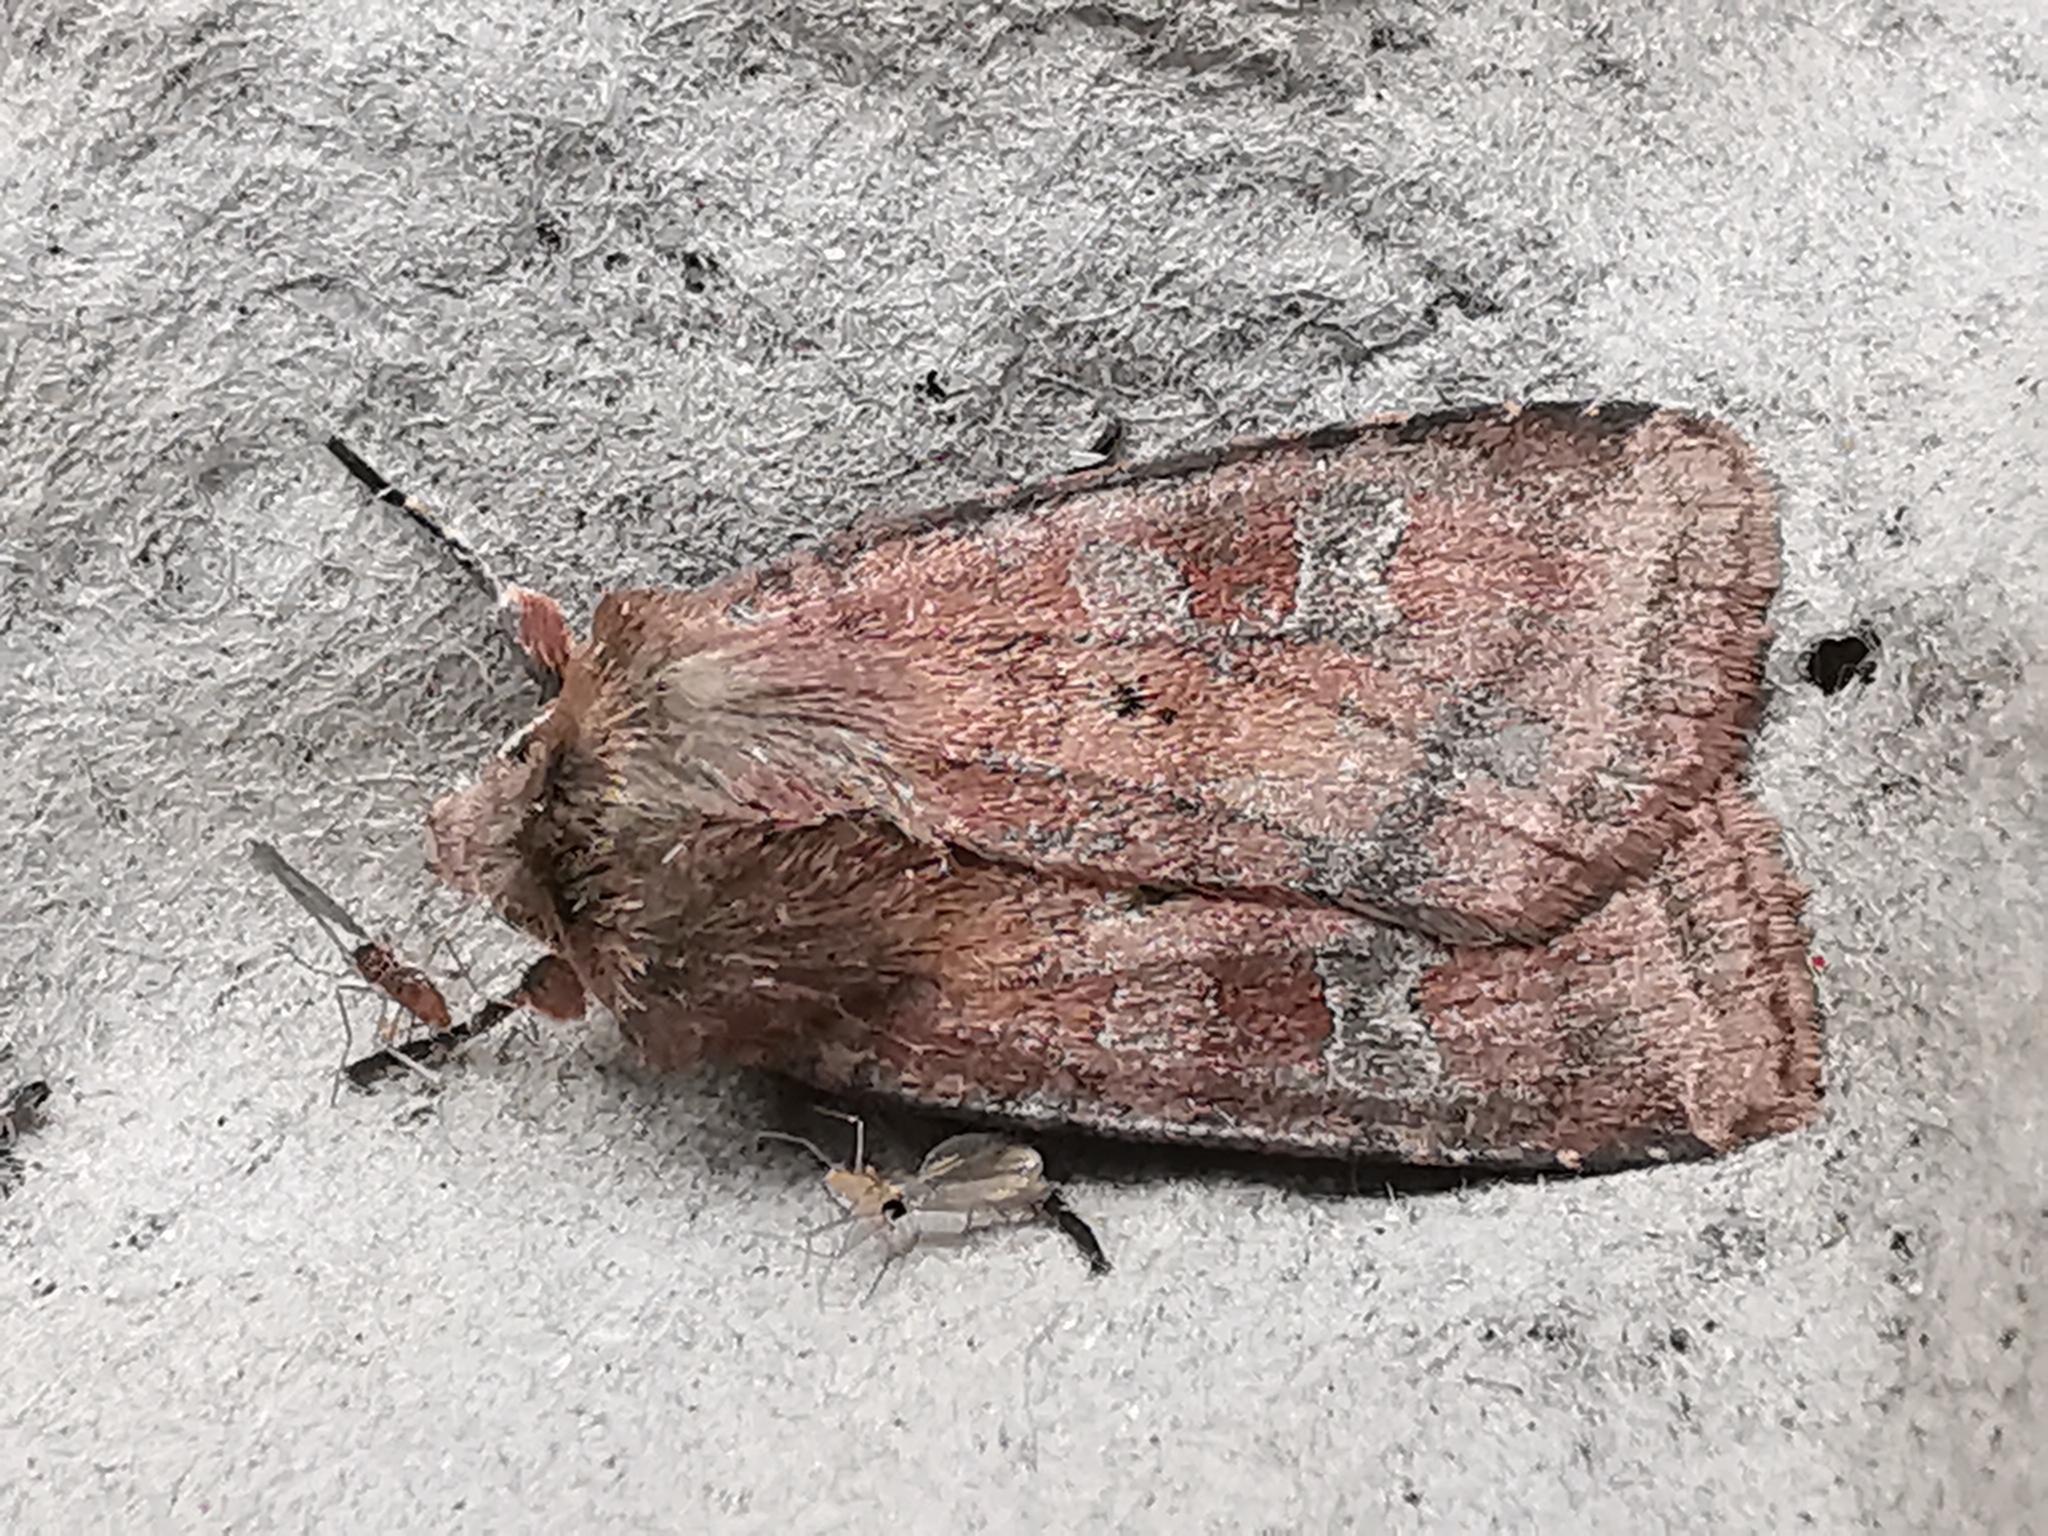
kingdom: Animalia
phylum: Arthropoda
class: Insecta
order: Lepidoptera
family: Noctuidae
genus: Diarsia
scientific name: Diarsia rubi
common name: Small square-spot
